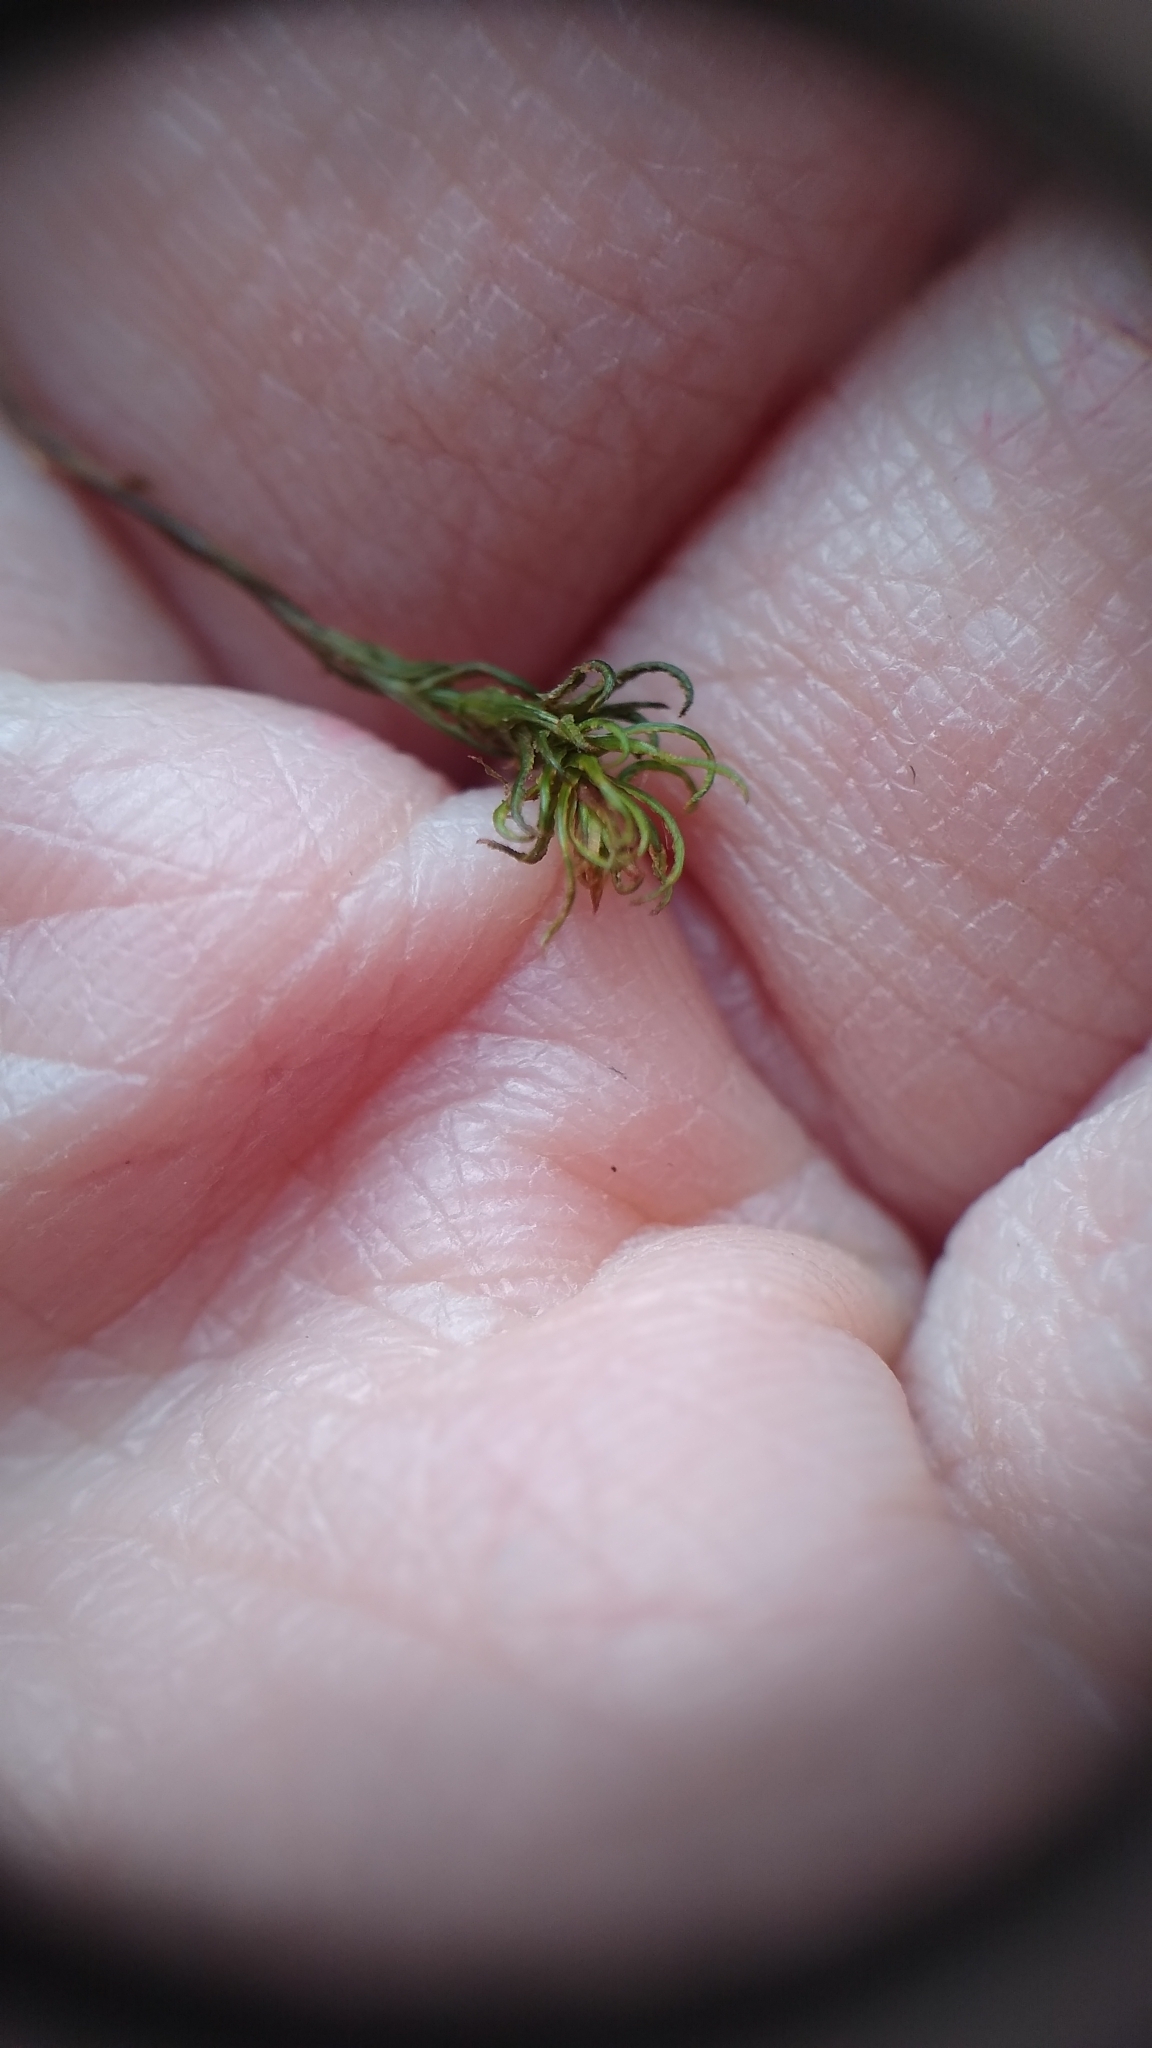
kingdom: Plantae
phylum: Bryophyta
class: Polytrichopsida
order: Polytrichales
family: Polytrichaceae
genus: Atrichum
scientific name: Atrichum angustatum
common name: Lesser smoothcap
